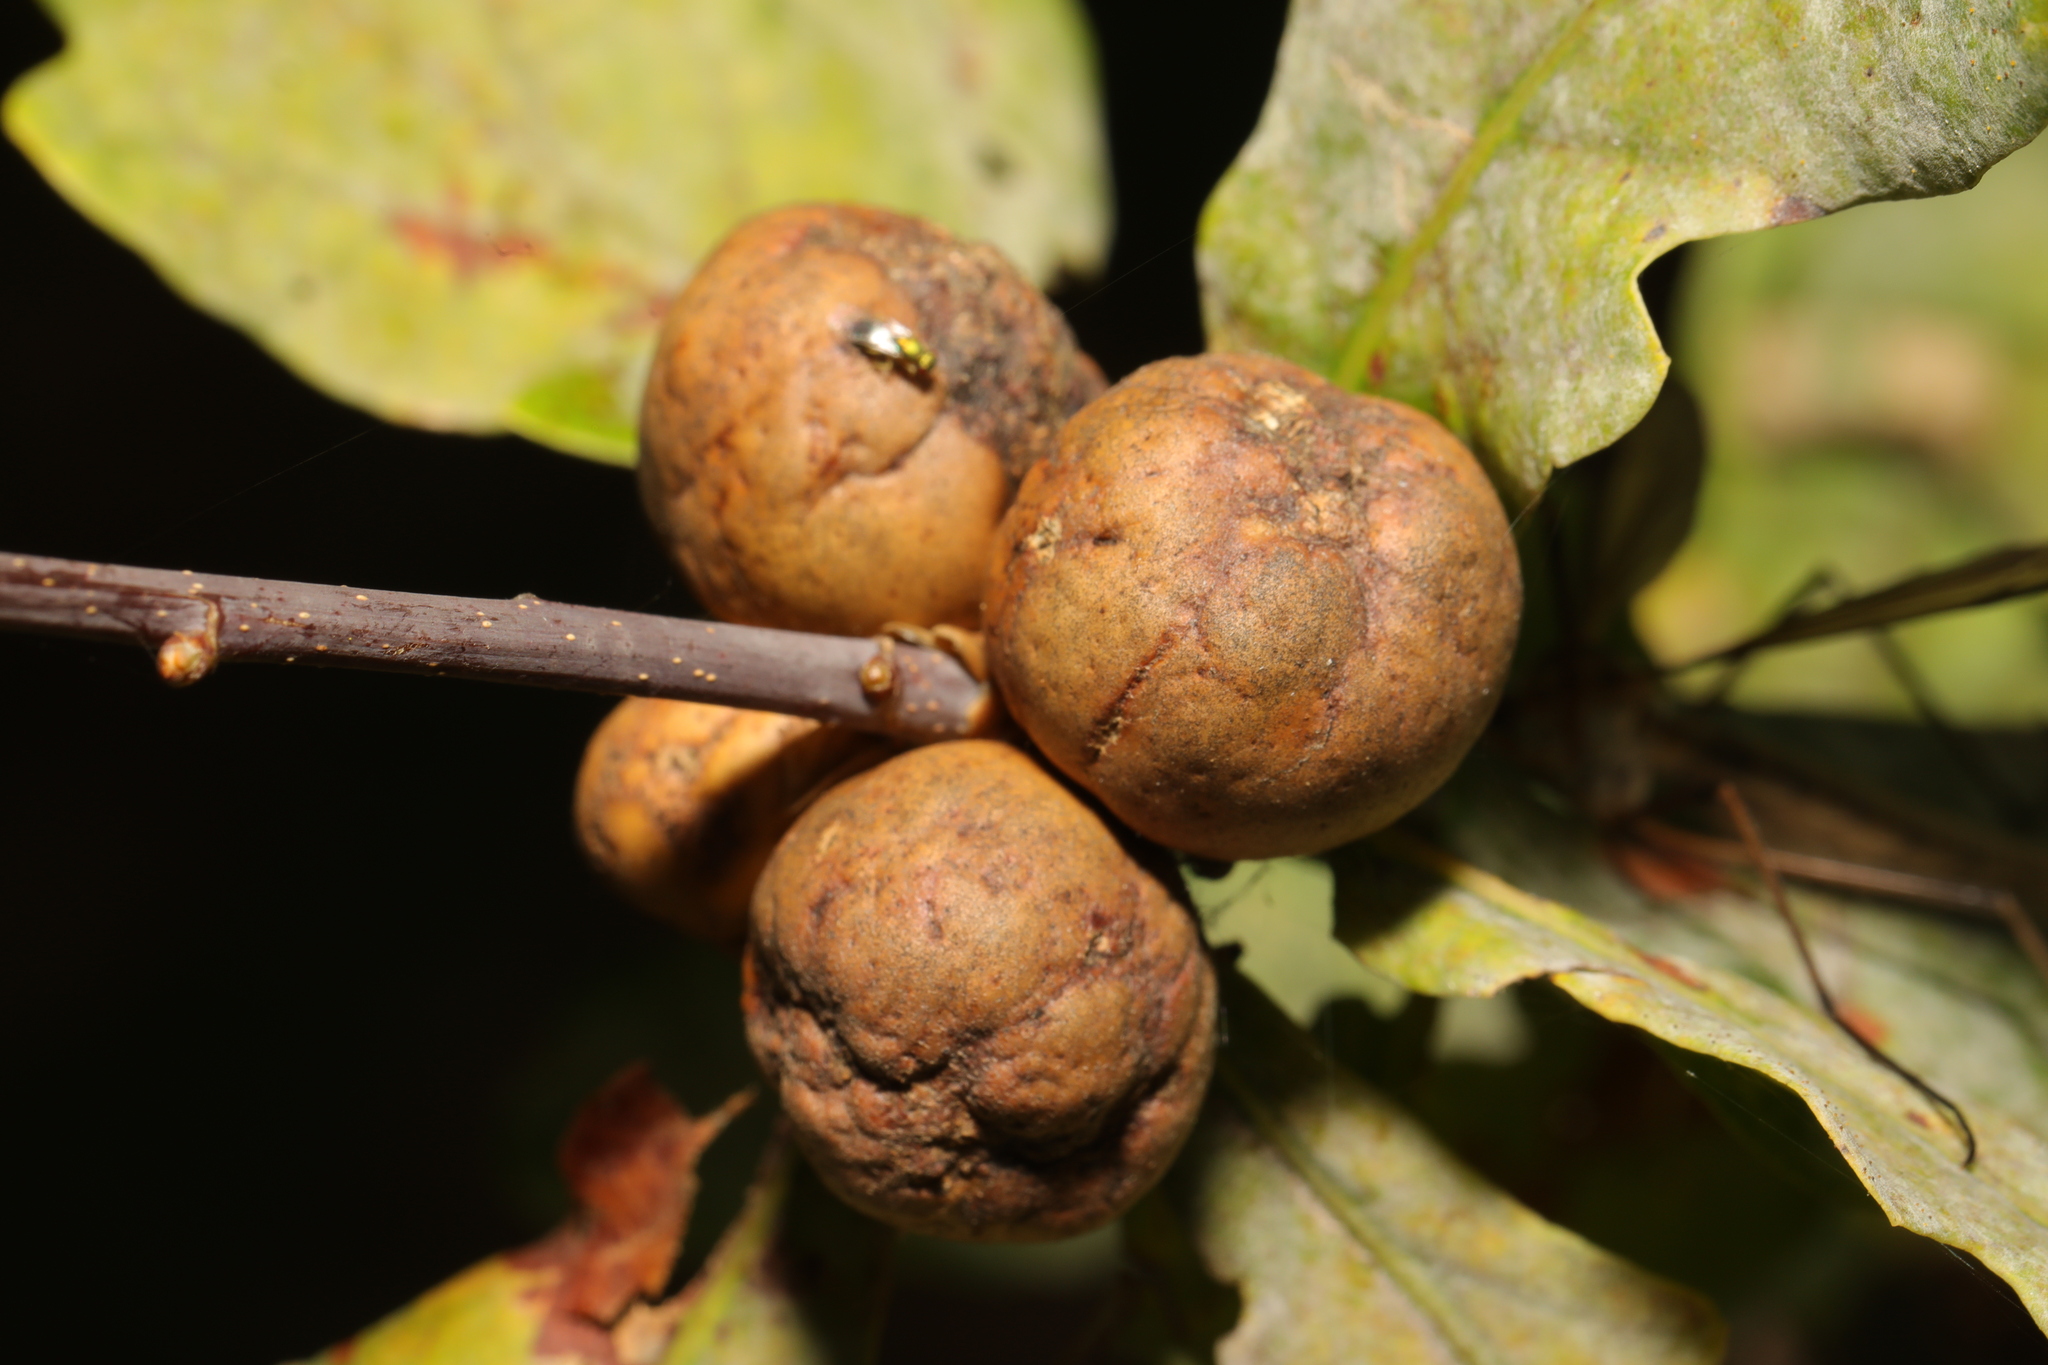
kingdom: Animalia
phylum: Arthropoda
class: Insecta
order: Hymenoptera
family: Cynipidae
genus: Andricus
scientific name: Andricus kollari
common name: Marble gall
